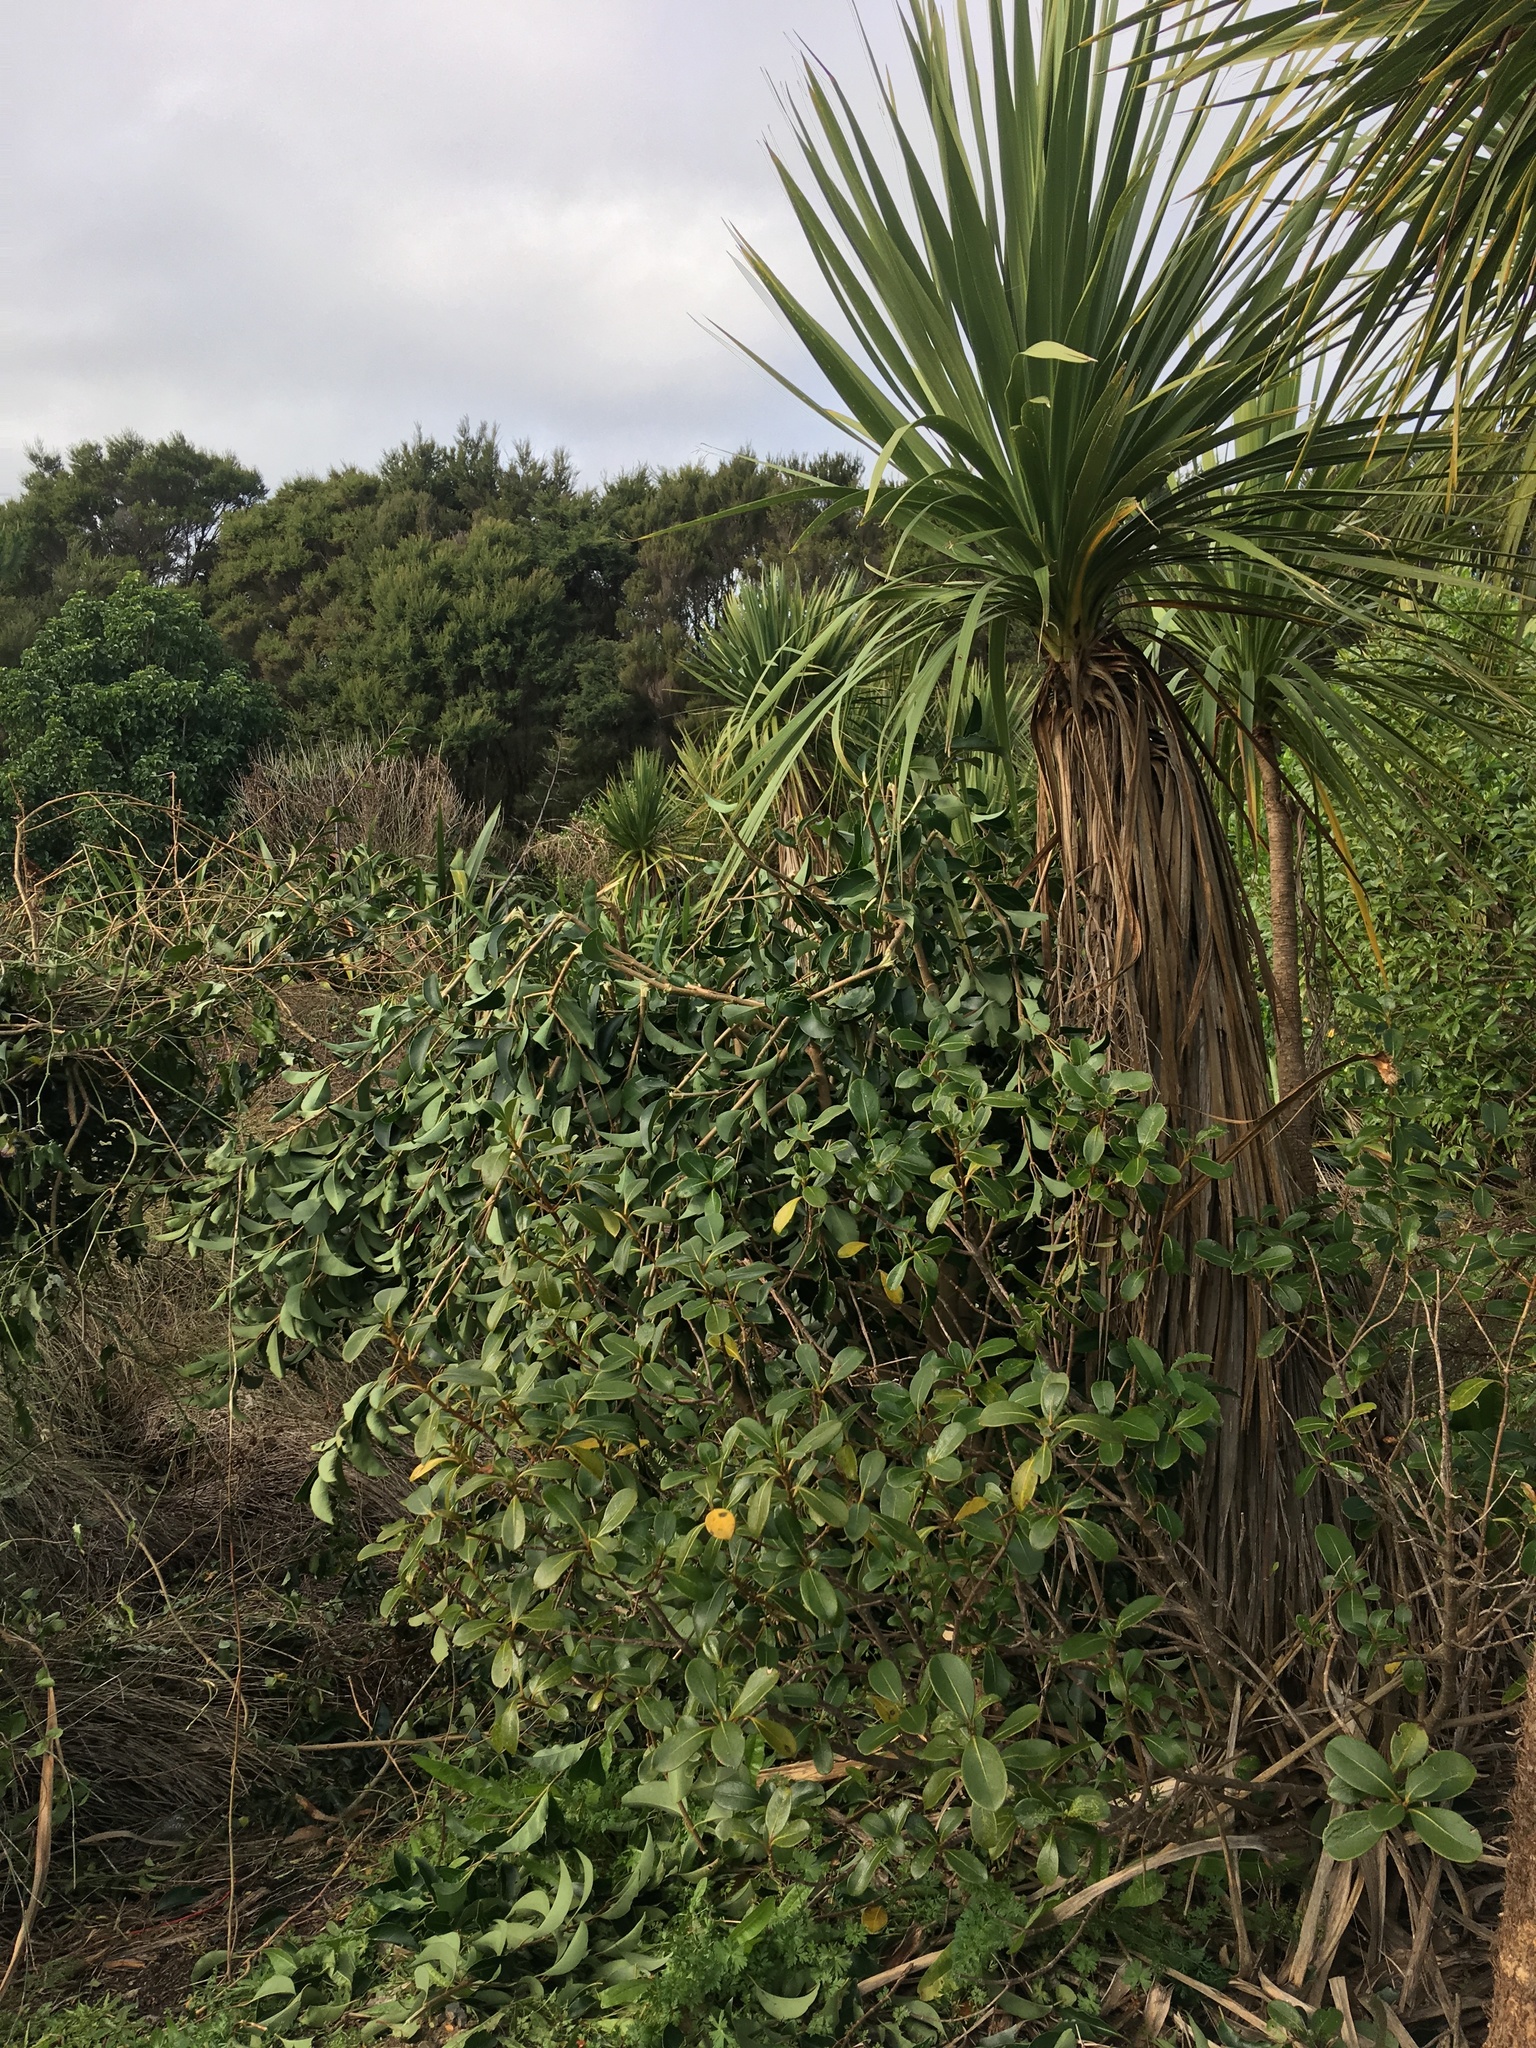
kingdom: Plantae
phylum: Tracheophyta
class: Magnoliopsida
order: Apiales
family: Pittosporaceae
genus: Pittosporum
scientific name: Pittosporum crassifolium
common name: Karo
